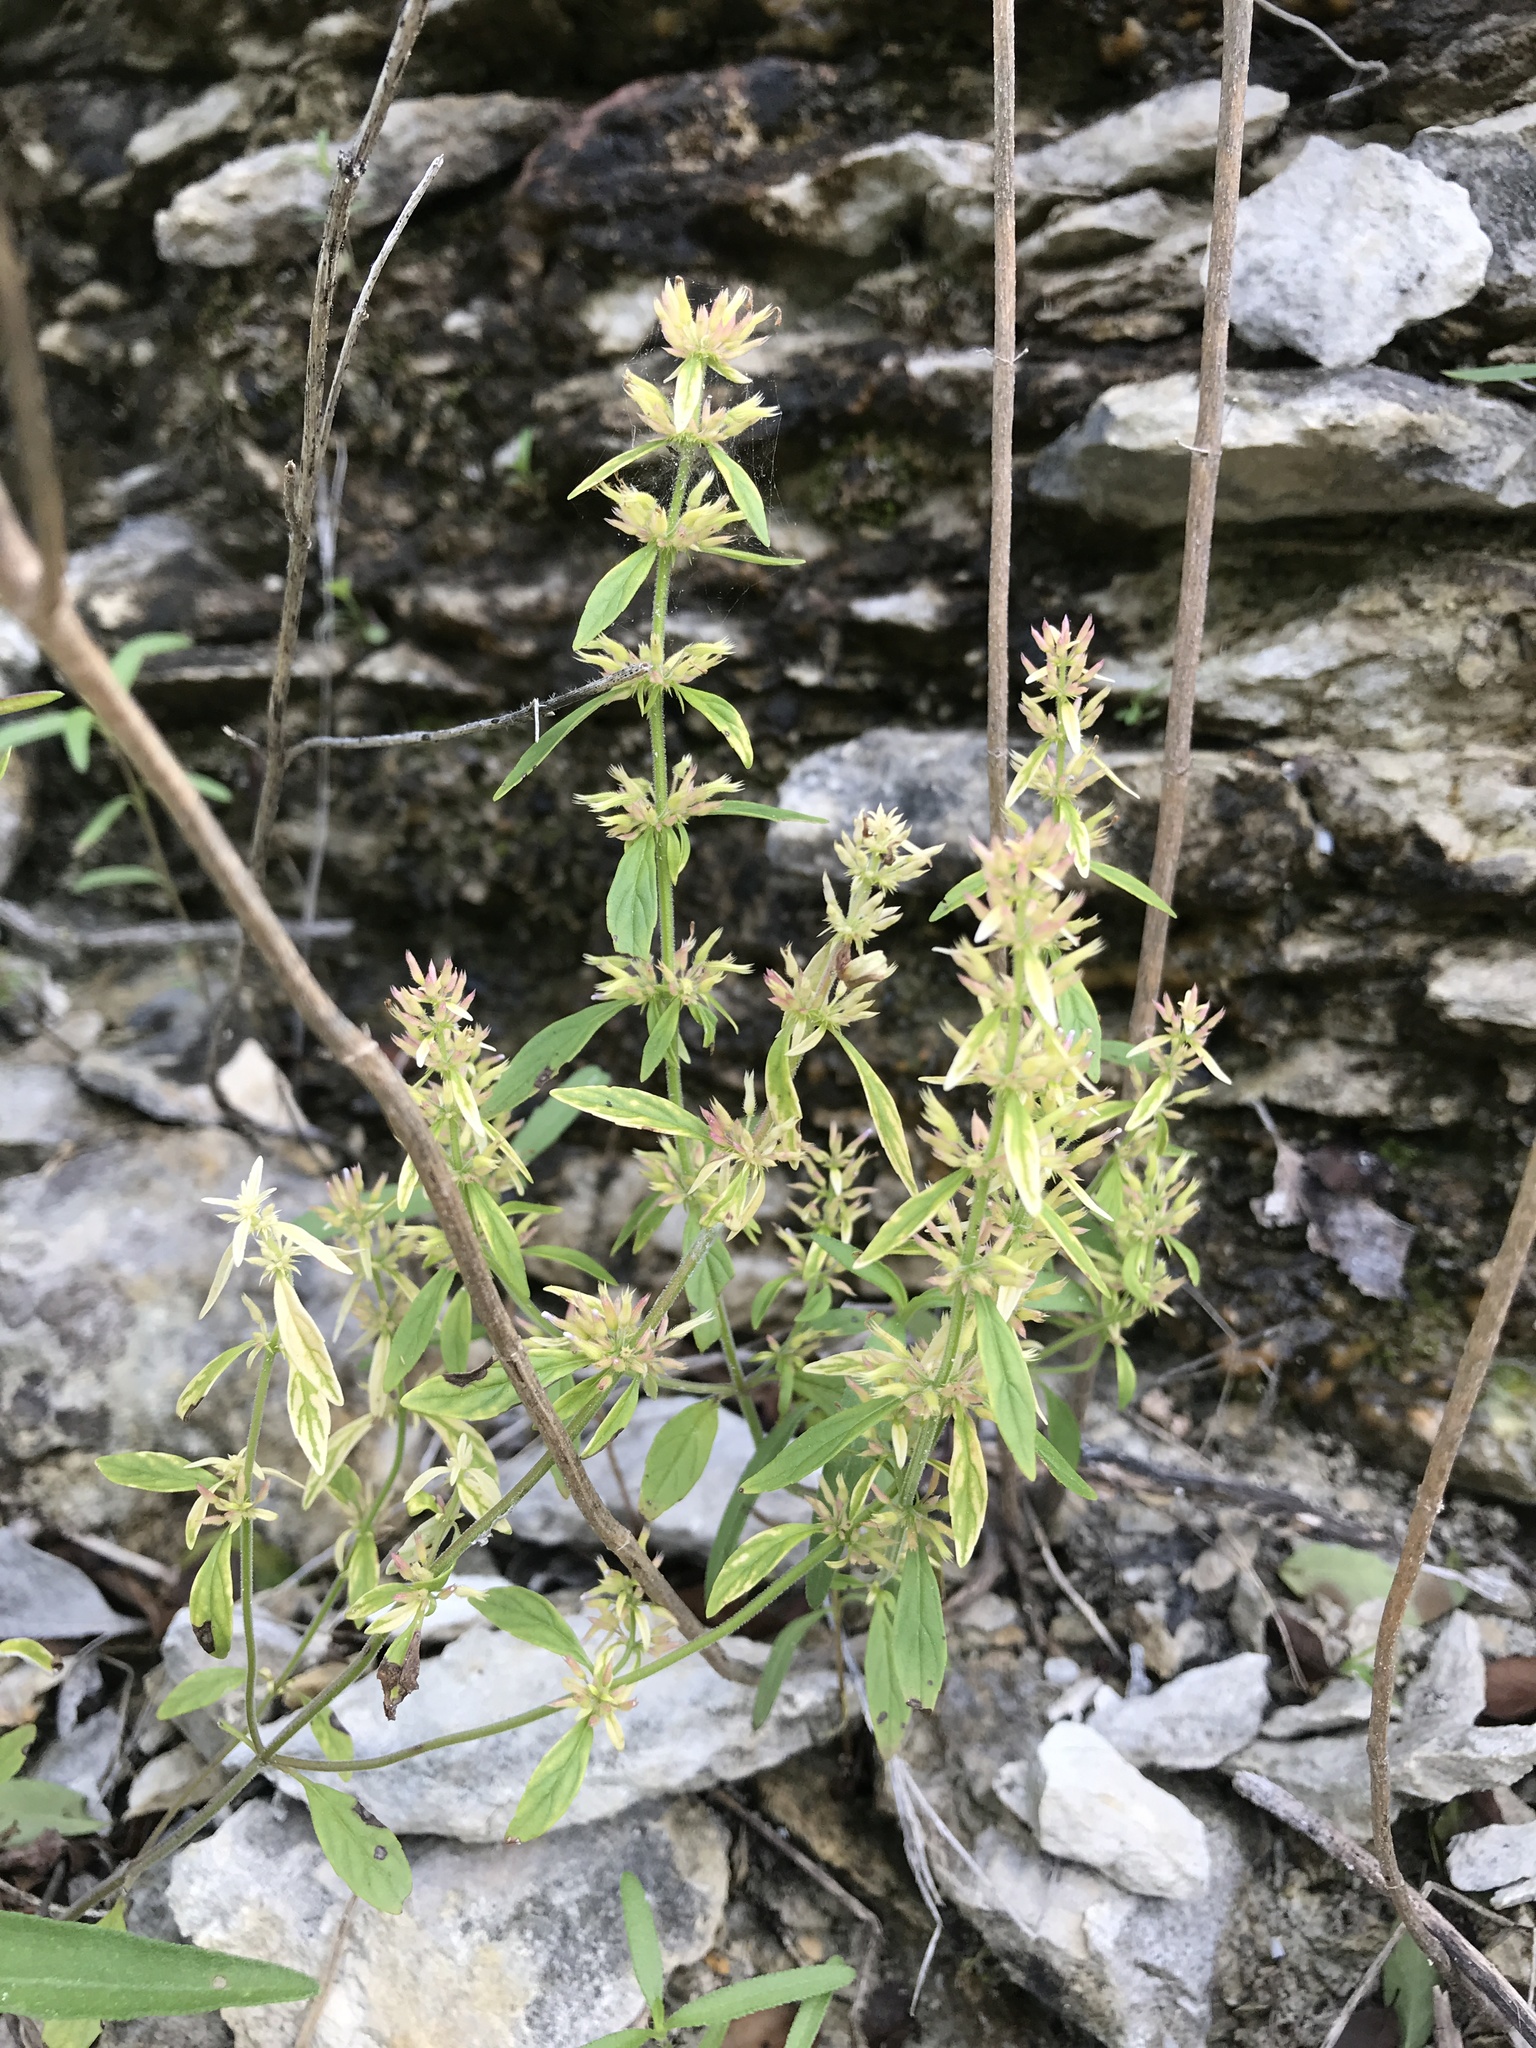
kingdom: Plantae
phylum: Tracheophyta
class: Magnoliopsida
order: Lamiales
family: Lamiaceae
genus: Hedeoma
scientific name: Hedeoma acinoides
